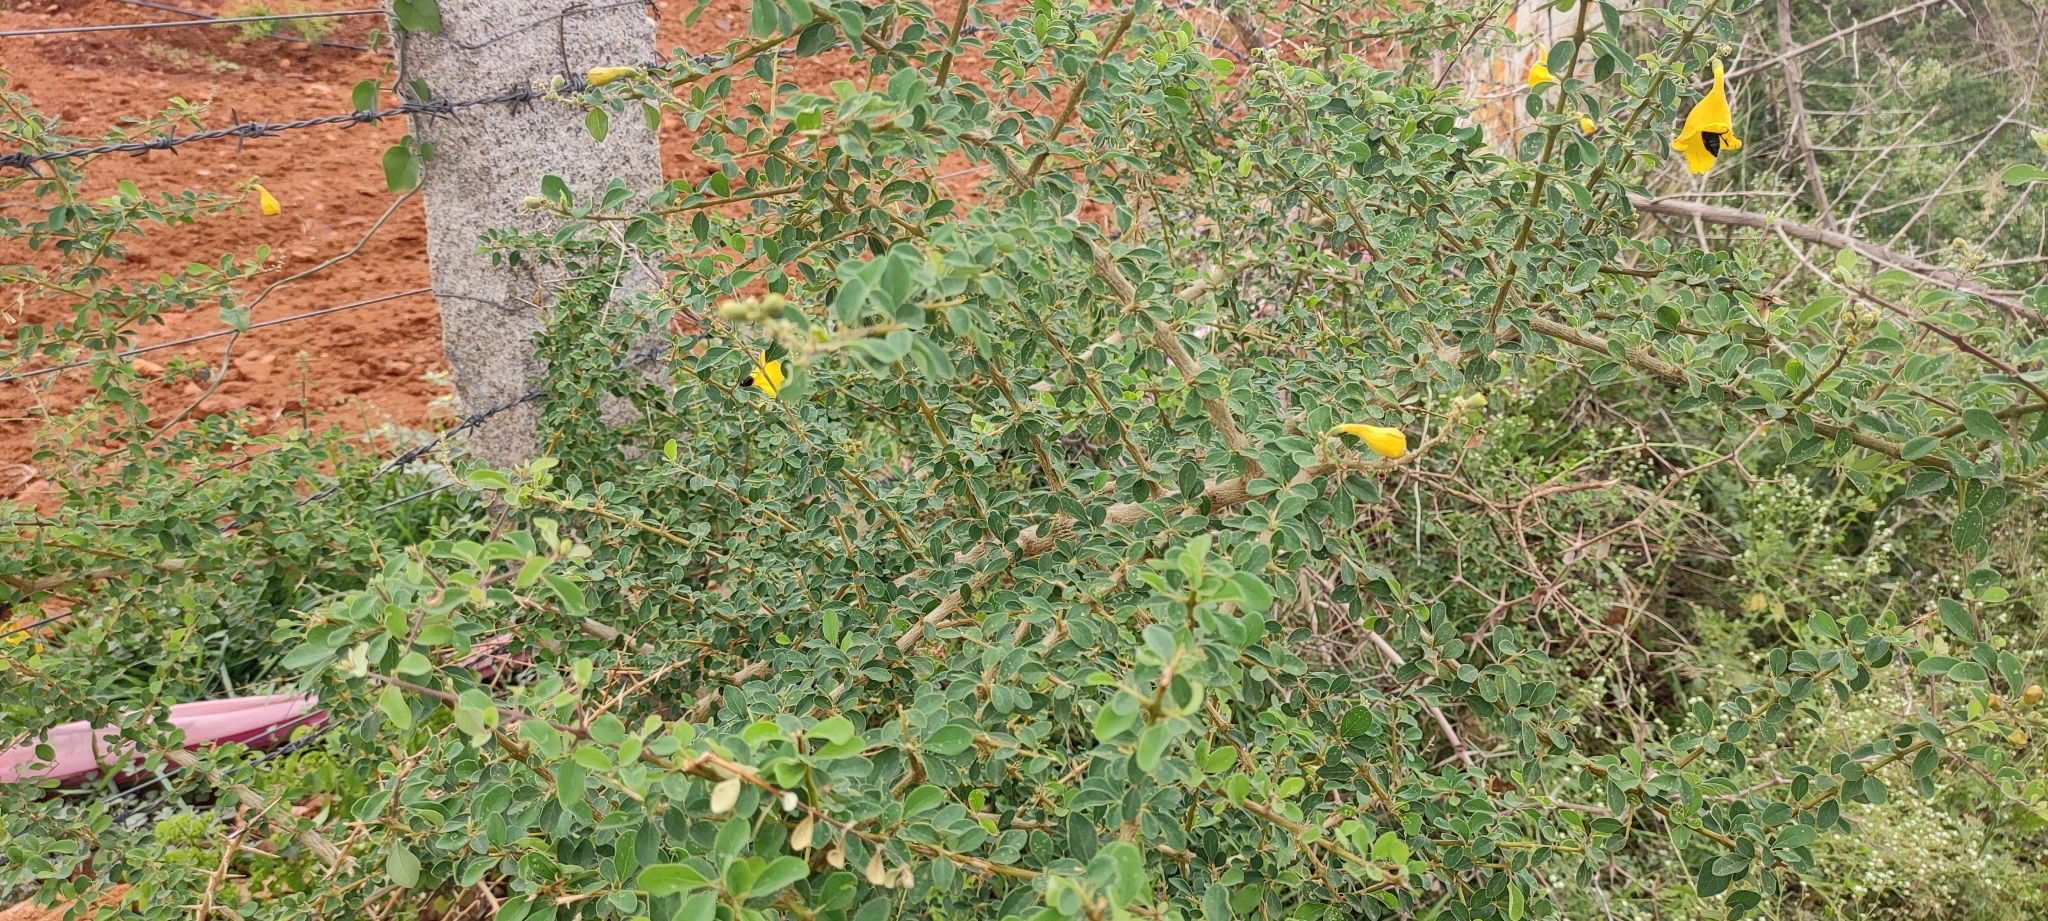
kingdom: Plantae
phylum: Tracheophyta
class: Magnoliopsida
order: Lamiales
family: Lamiaceae
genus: Gmelina
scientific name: Gmelina asiatica
